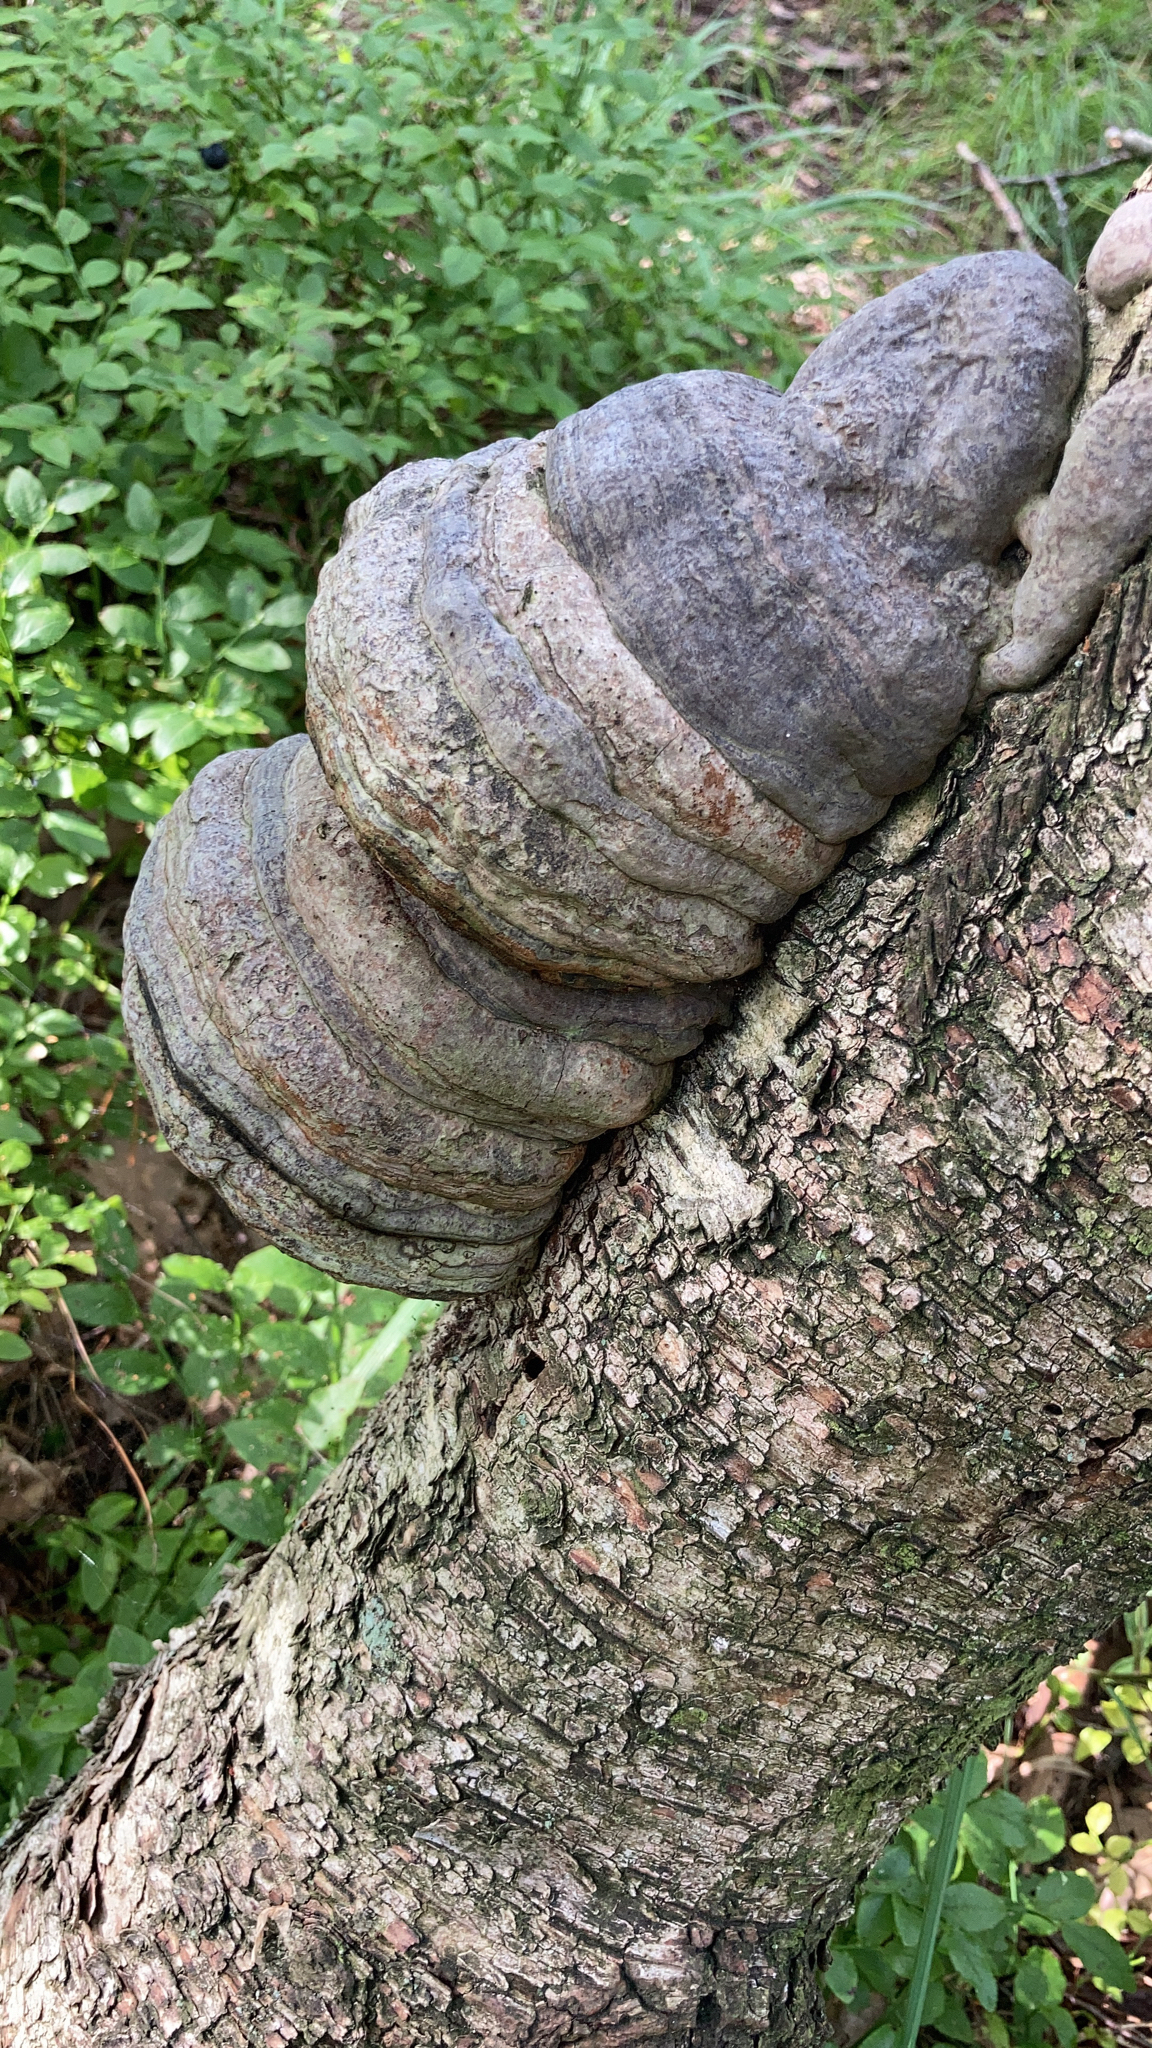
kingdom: Fungi
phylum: Basidiomycota
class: Agaricomycetes
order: Polyporales
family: Polyporaceae
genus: Fomes
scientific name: Fomes fomentarius
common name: Hoof fungus
